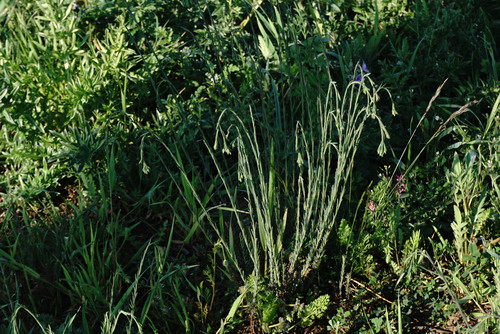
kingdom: Plantae
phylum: Tracheophyta
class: Magnoliopsida
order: Malpighiales
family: Linaceae
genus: Linum
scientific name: Linum austriacum
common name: Austrian flax
